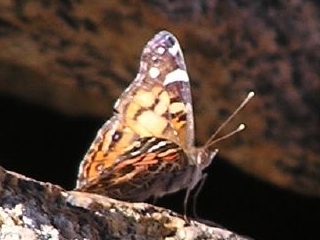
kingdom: Animalia
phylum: Arthropoda
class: Insecta
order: Lepidoptera
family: Nymphalidae
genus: Vanessa
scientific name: Vanessa virginiensis
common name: American lady
